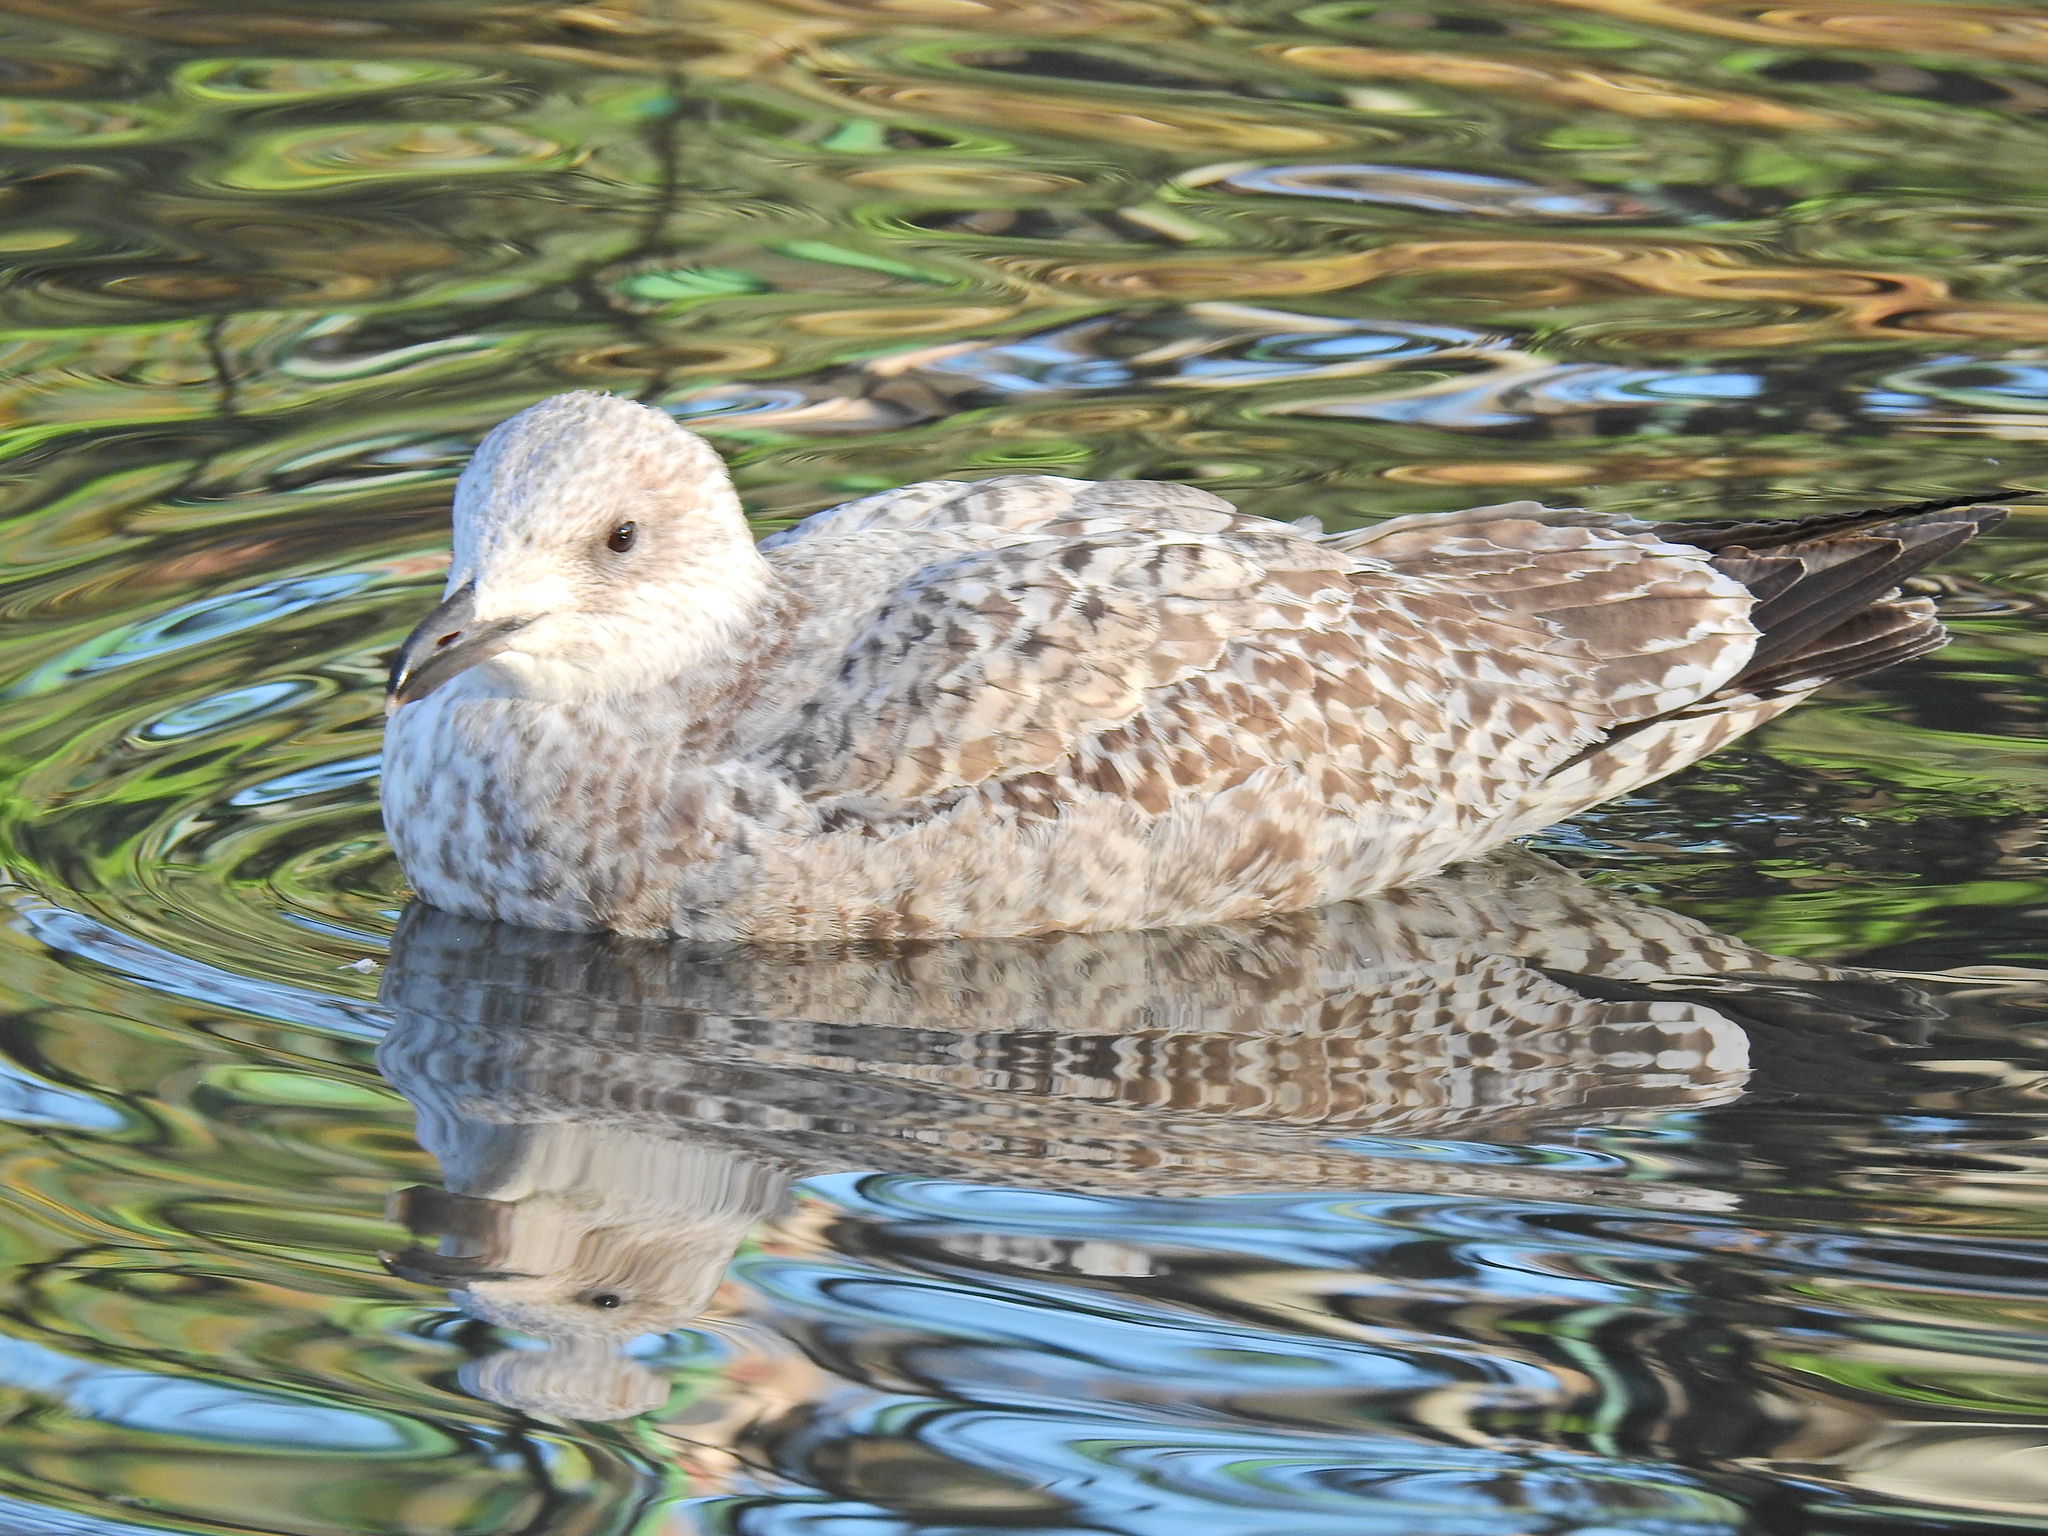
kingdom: Animalia
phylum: Chordata
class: Aves
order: Charadriiformes
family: Laridae
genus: Larus
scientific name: Larus argentatus
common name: Herring gull
